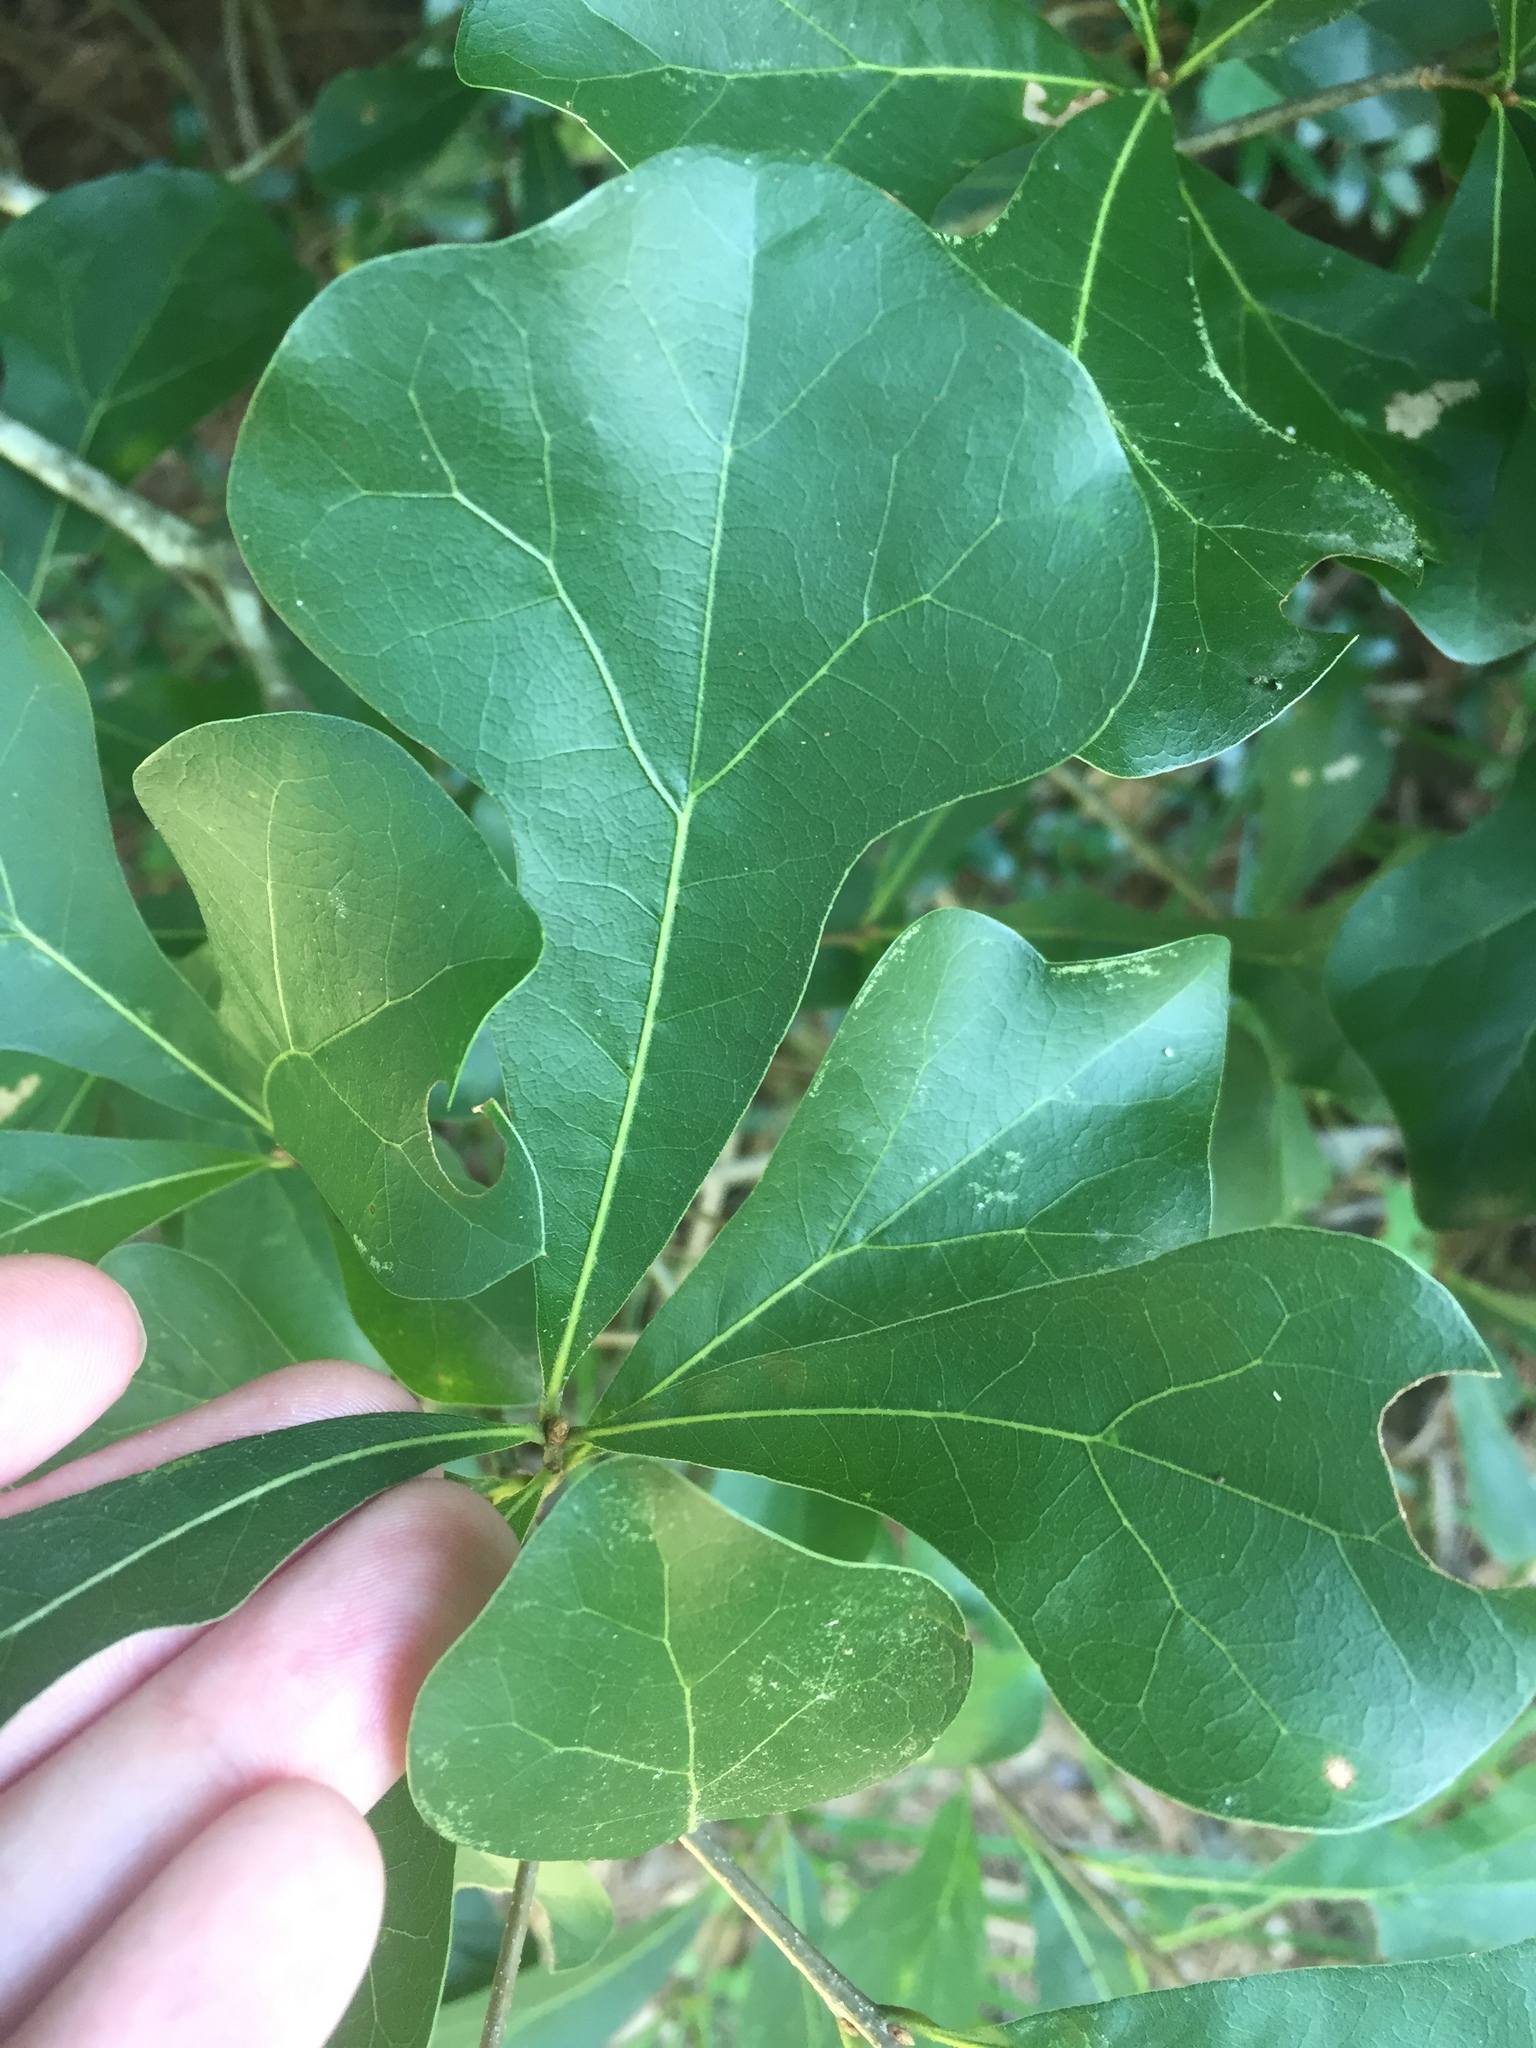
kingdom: Plantae
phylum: Tracheophyta
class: Magnoliopsida
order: Fagales
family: Fagaceae
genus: Quercus
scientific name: Quercus nigra
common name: Water oak
